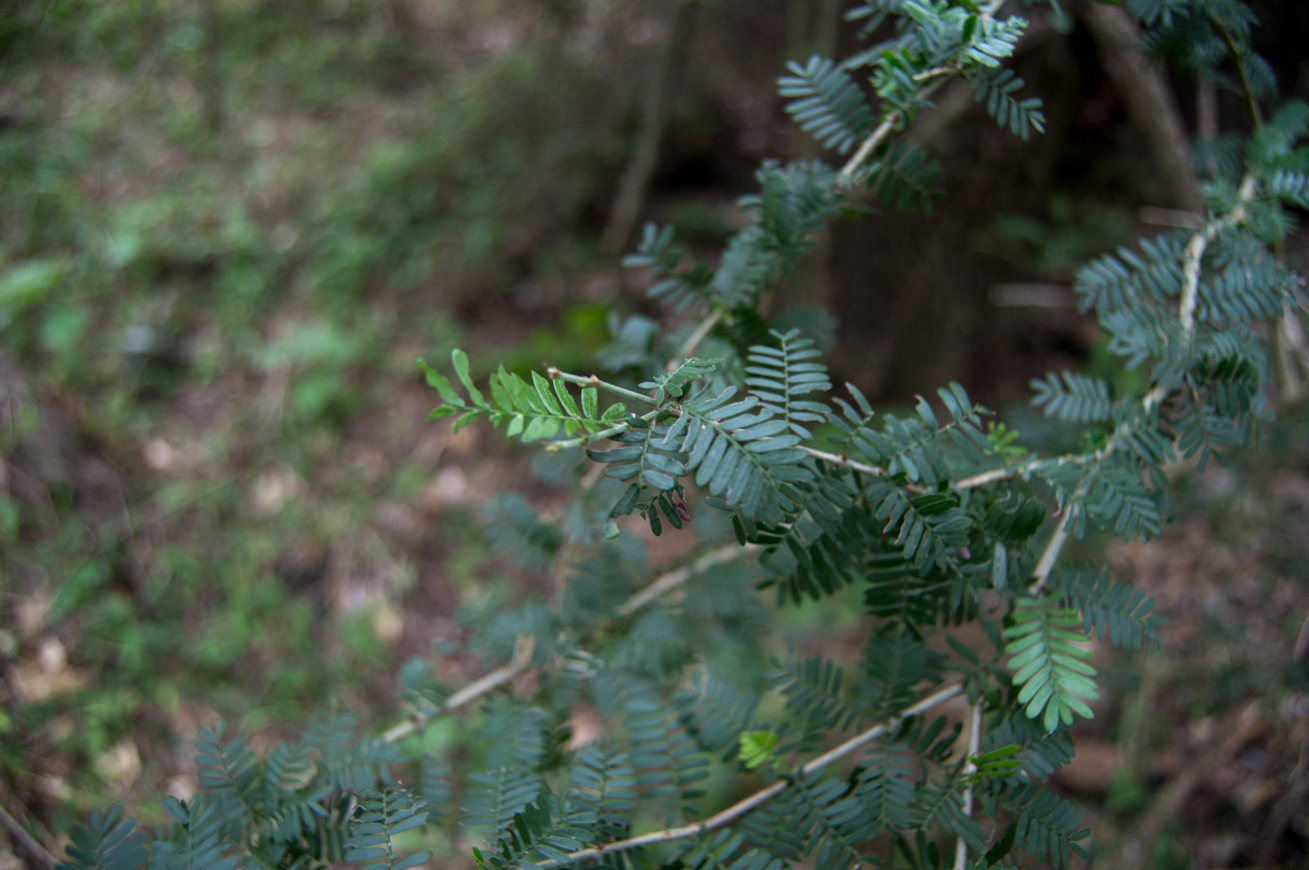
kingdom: Plantae
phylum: Tracheophyta
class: Magnoliopsida
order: Zygophyllales
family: Zygophyllaceae
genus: Porlieria
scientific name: Porlieria microphylla
